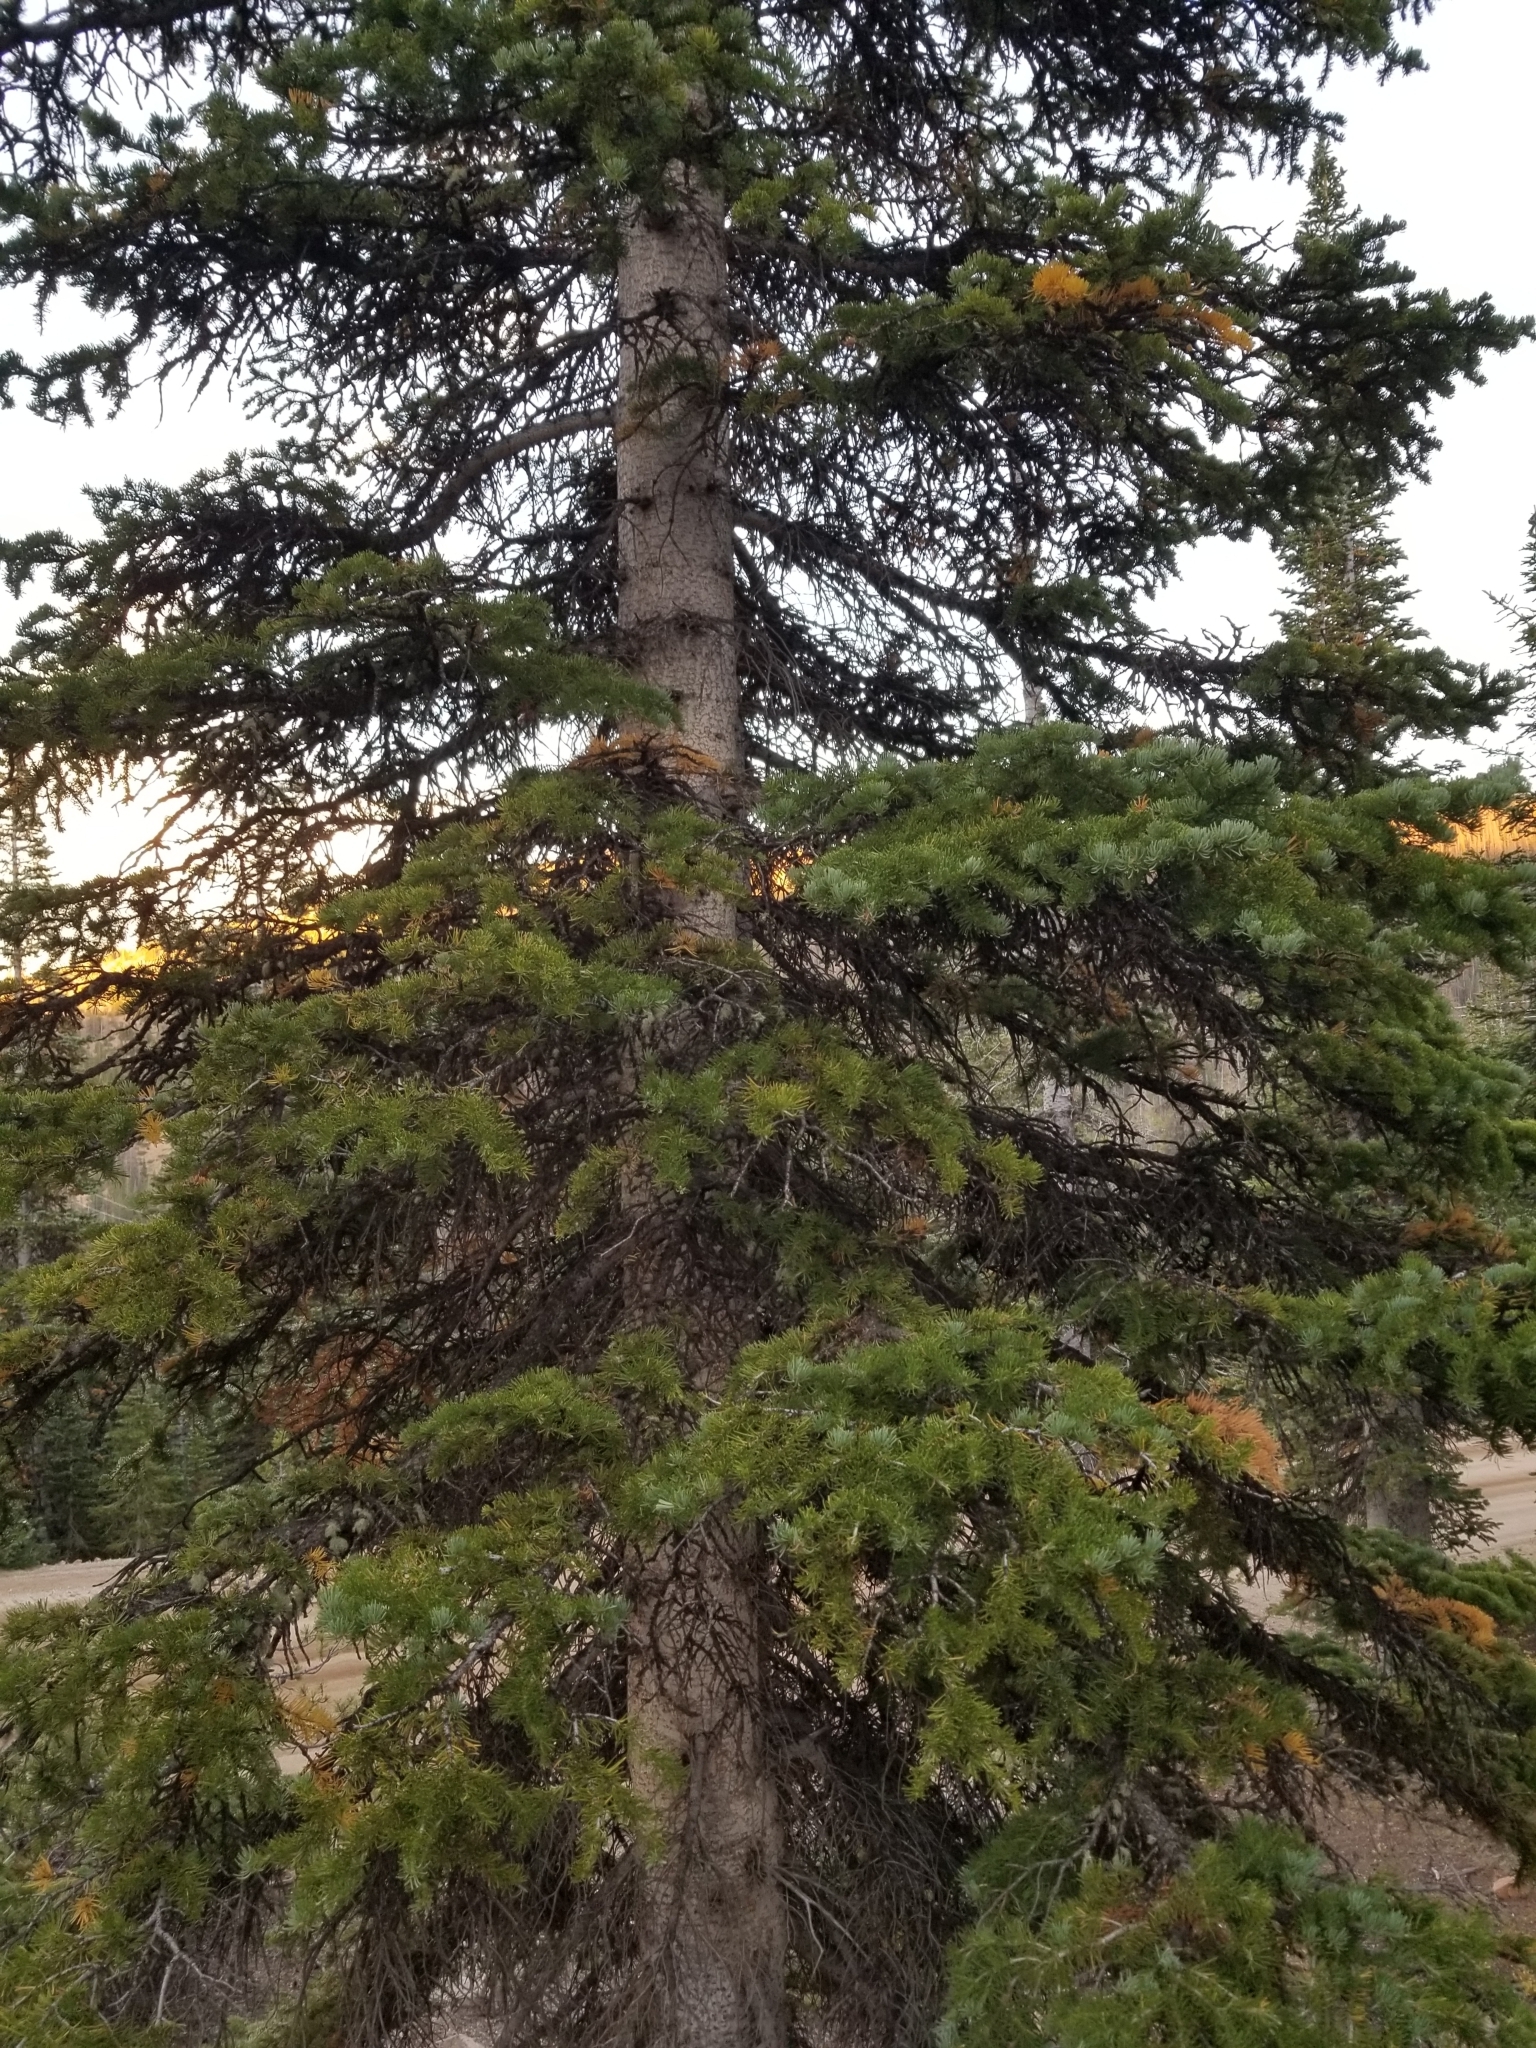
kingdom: Plantae
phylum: Tracheophyta
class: Pinopsida
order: Pinales
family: Pinaceae
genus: Abies
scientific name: Abies lasiocarpa
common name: Subalpine fir
